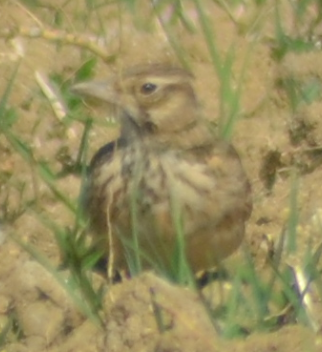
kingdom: Animalia
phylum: Chordata
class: Aves
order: Passeriformes
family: Alaudidae
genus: Galerida
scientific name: Galerida cristata
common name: Crested lark
